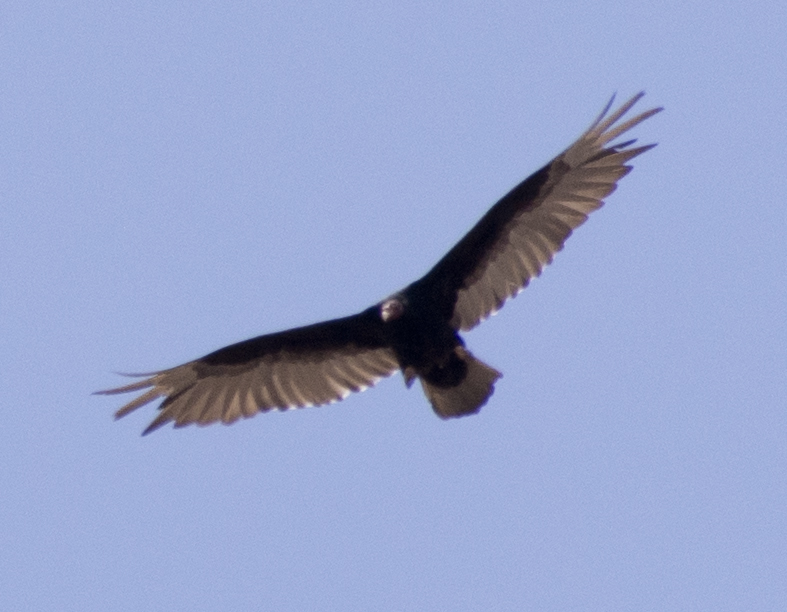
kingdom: Animalia
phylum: Chordata
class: Aves
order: Accipitriformes
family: Cathartidae
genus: Cathartes
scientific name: Cathartes aura
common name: Turkey vulture
